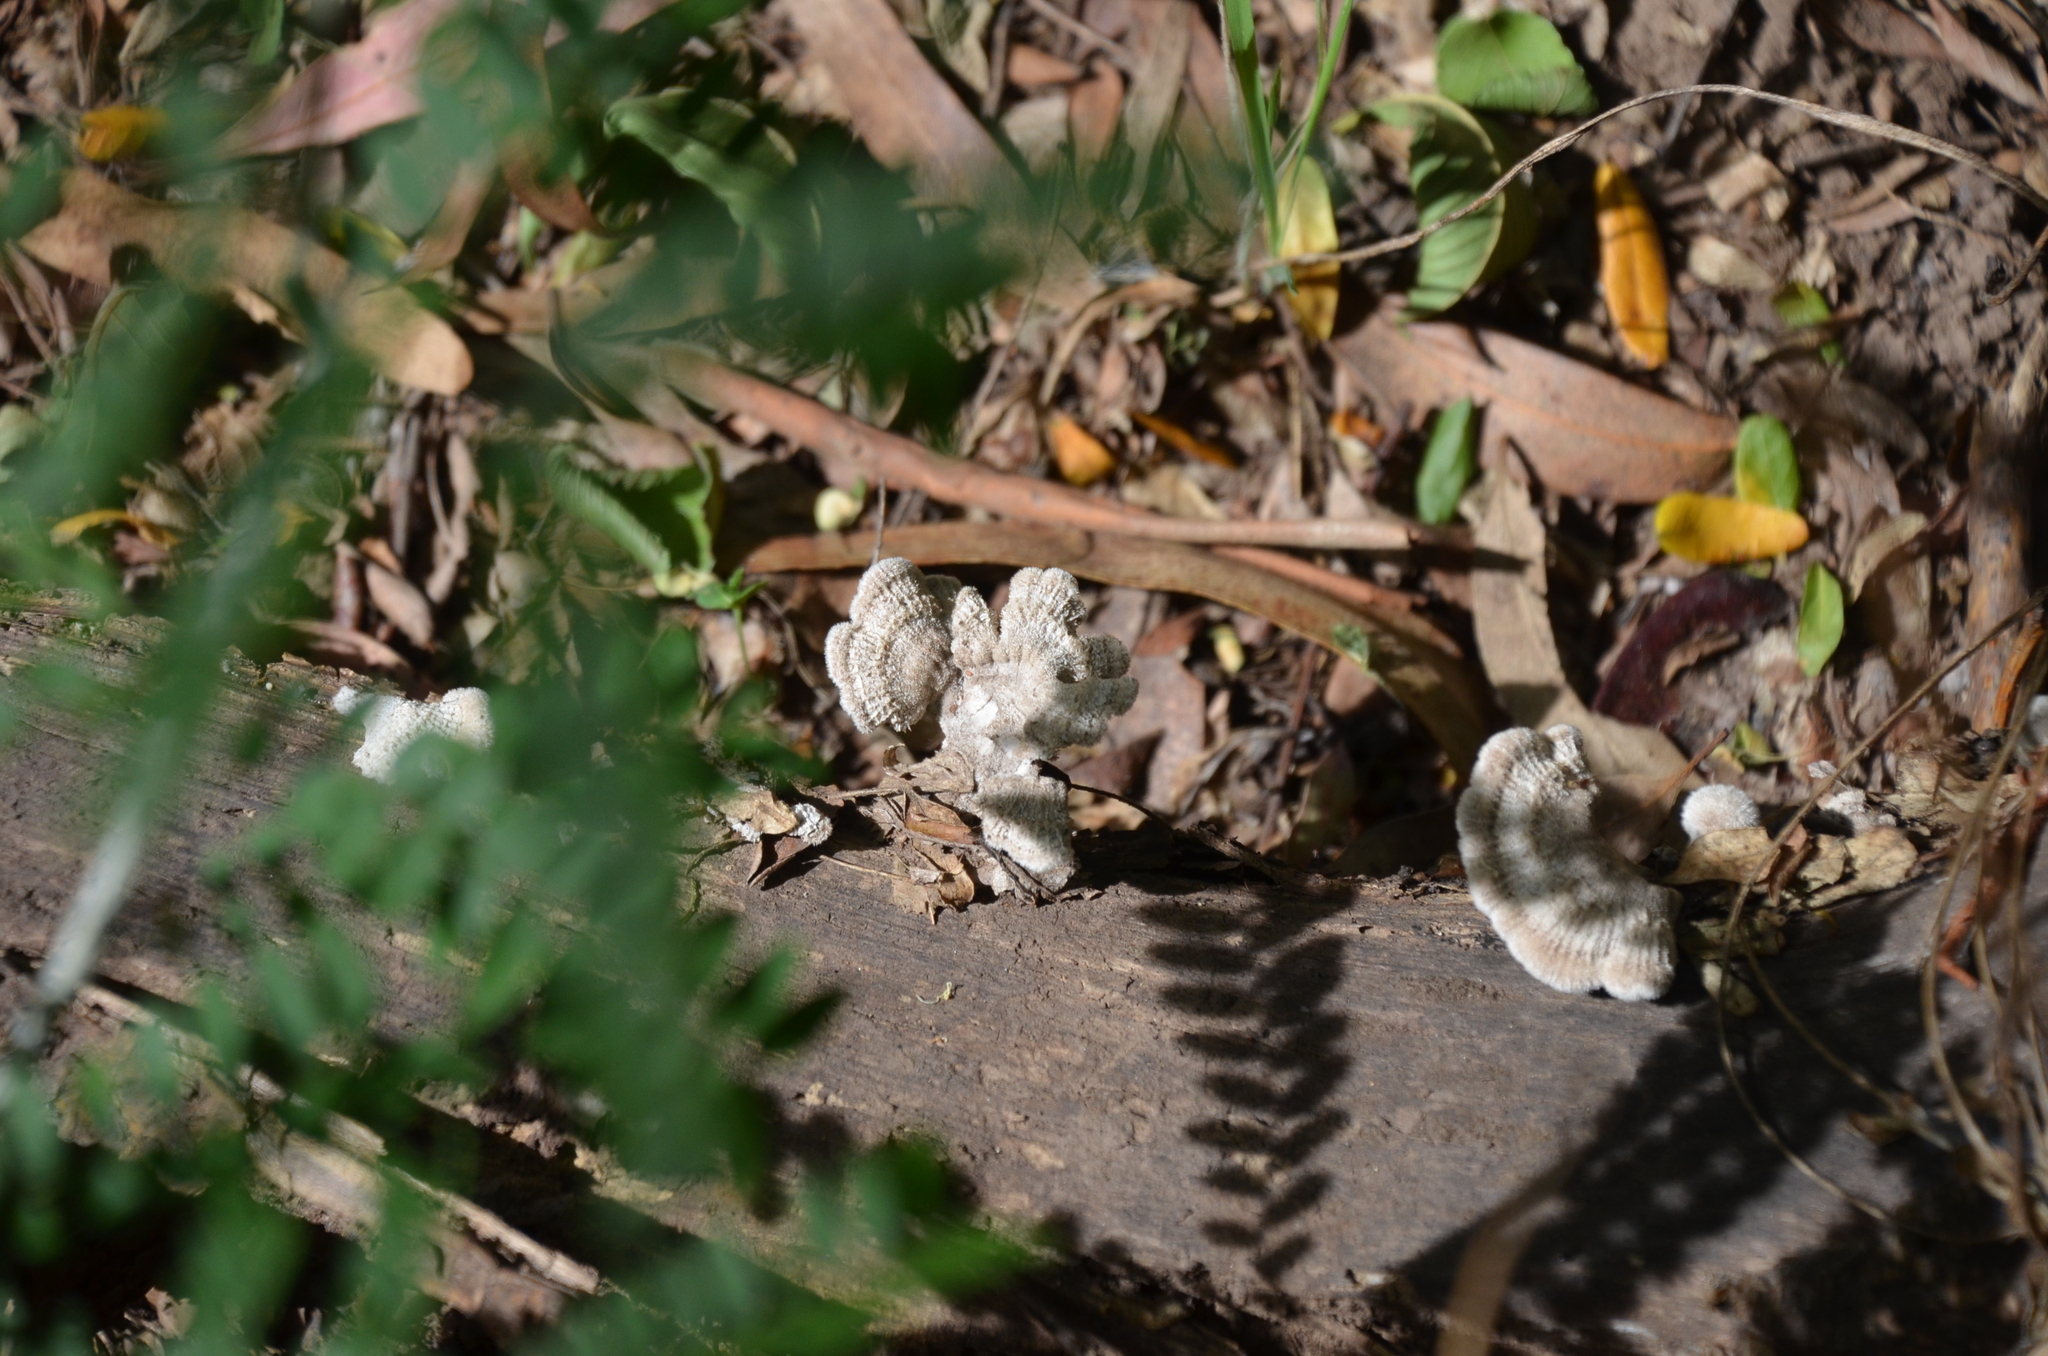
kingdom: Fungi
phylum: Basidiomycota
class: Agaricomycetes
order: Agaricales
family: Schizophyllaceae
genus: Schizophyllum
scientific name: Schizophyllum commune
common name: Common porecrust
